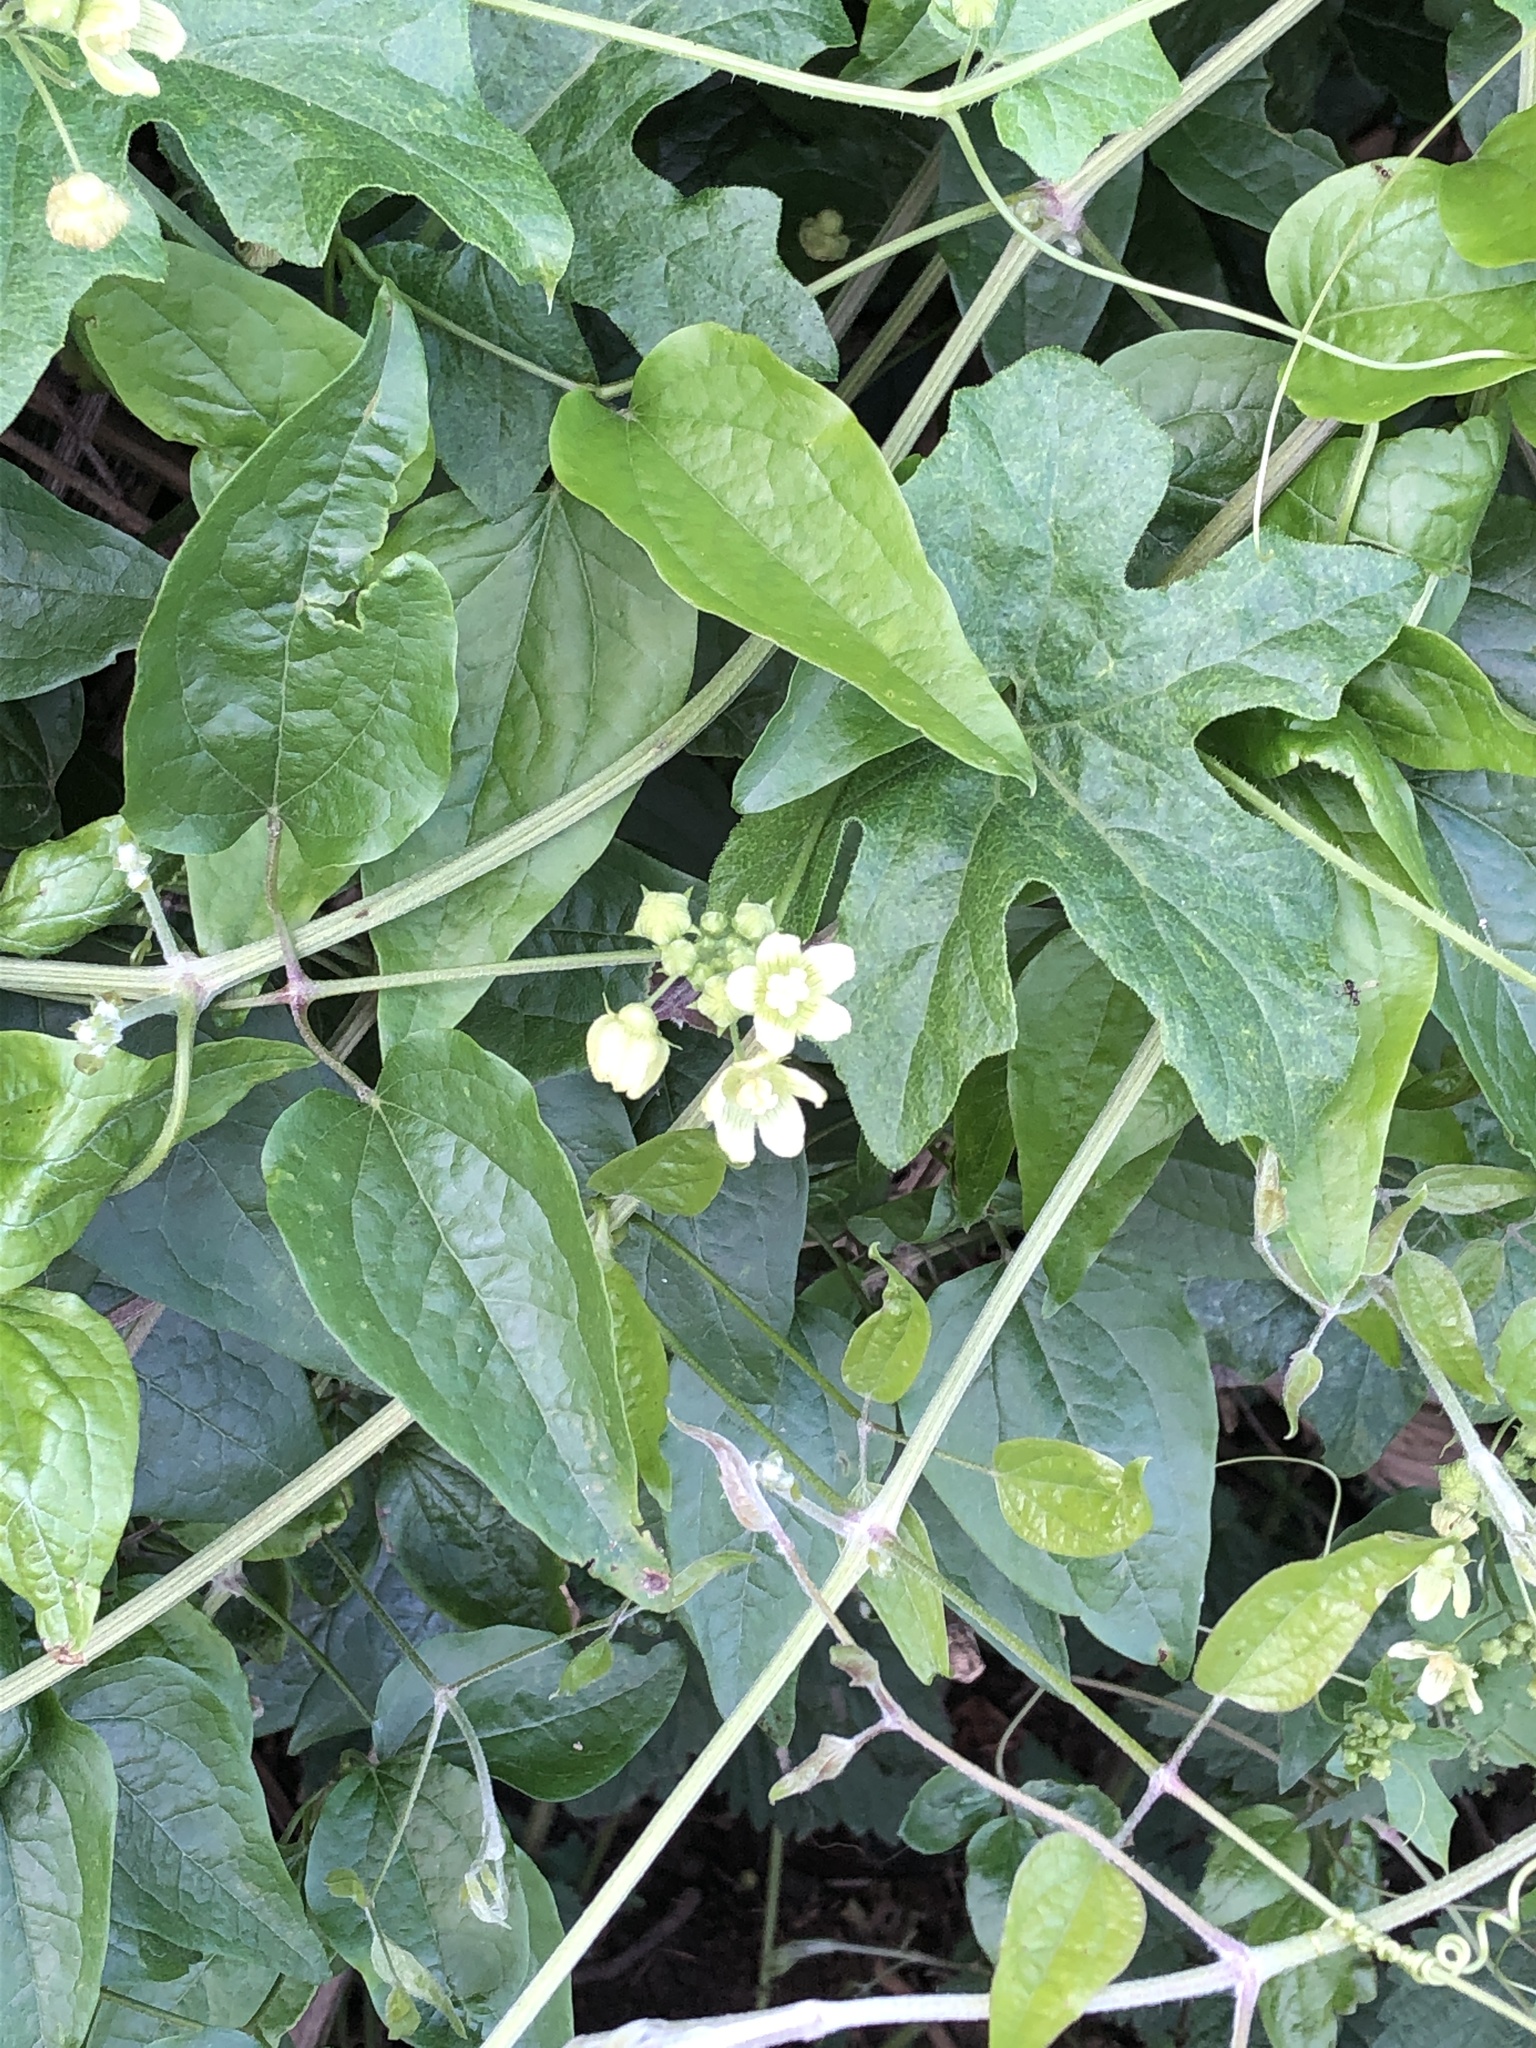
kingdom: Plantae
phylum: Tracheophyta
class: Magnoliopsida
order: Cucurbitales
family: Cucurbitaceae
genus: Bryonia
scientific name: Bryonia cretica
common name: Cretan bryony
